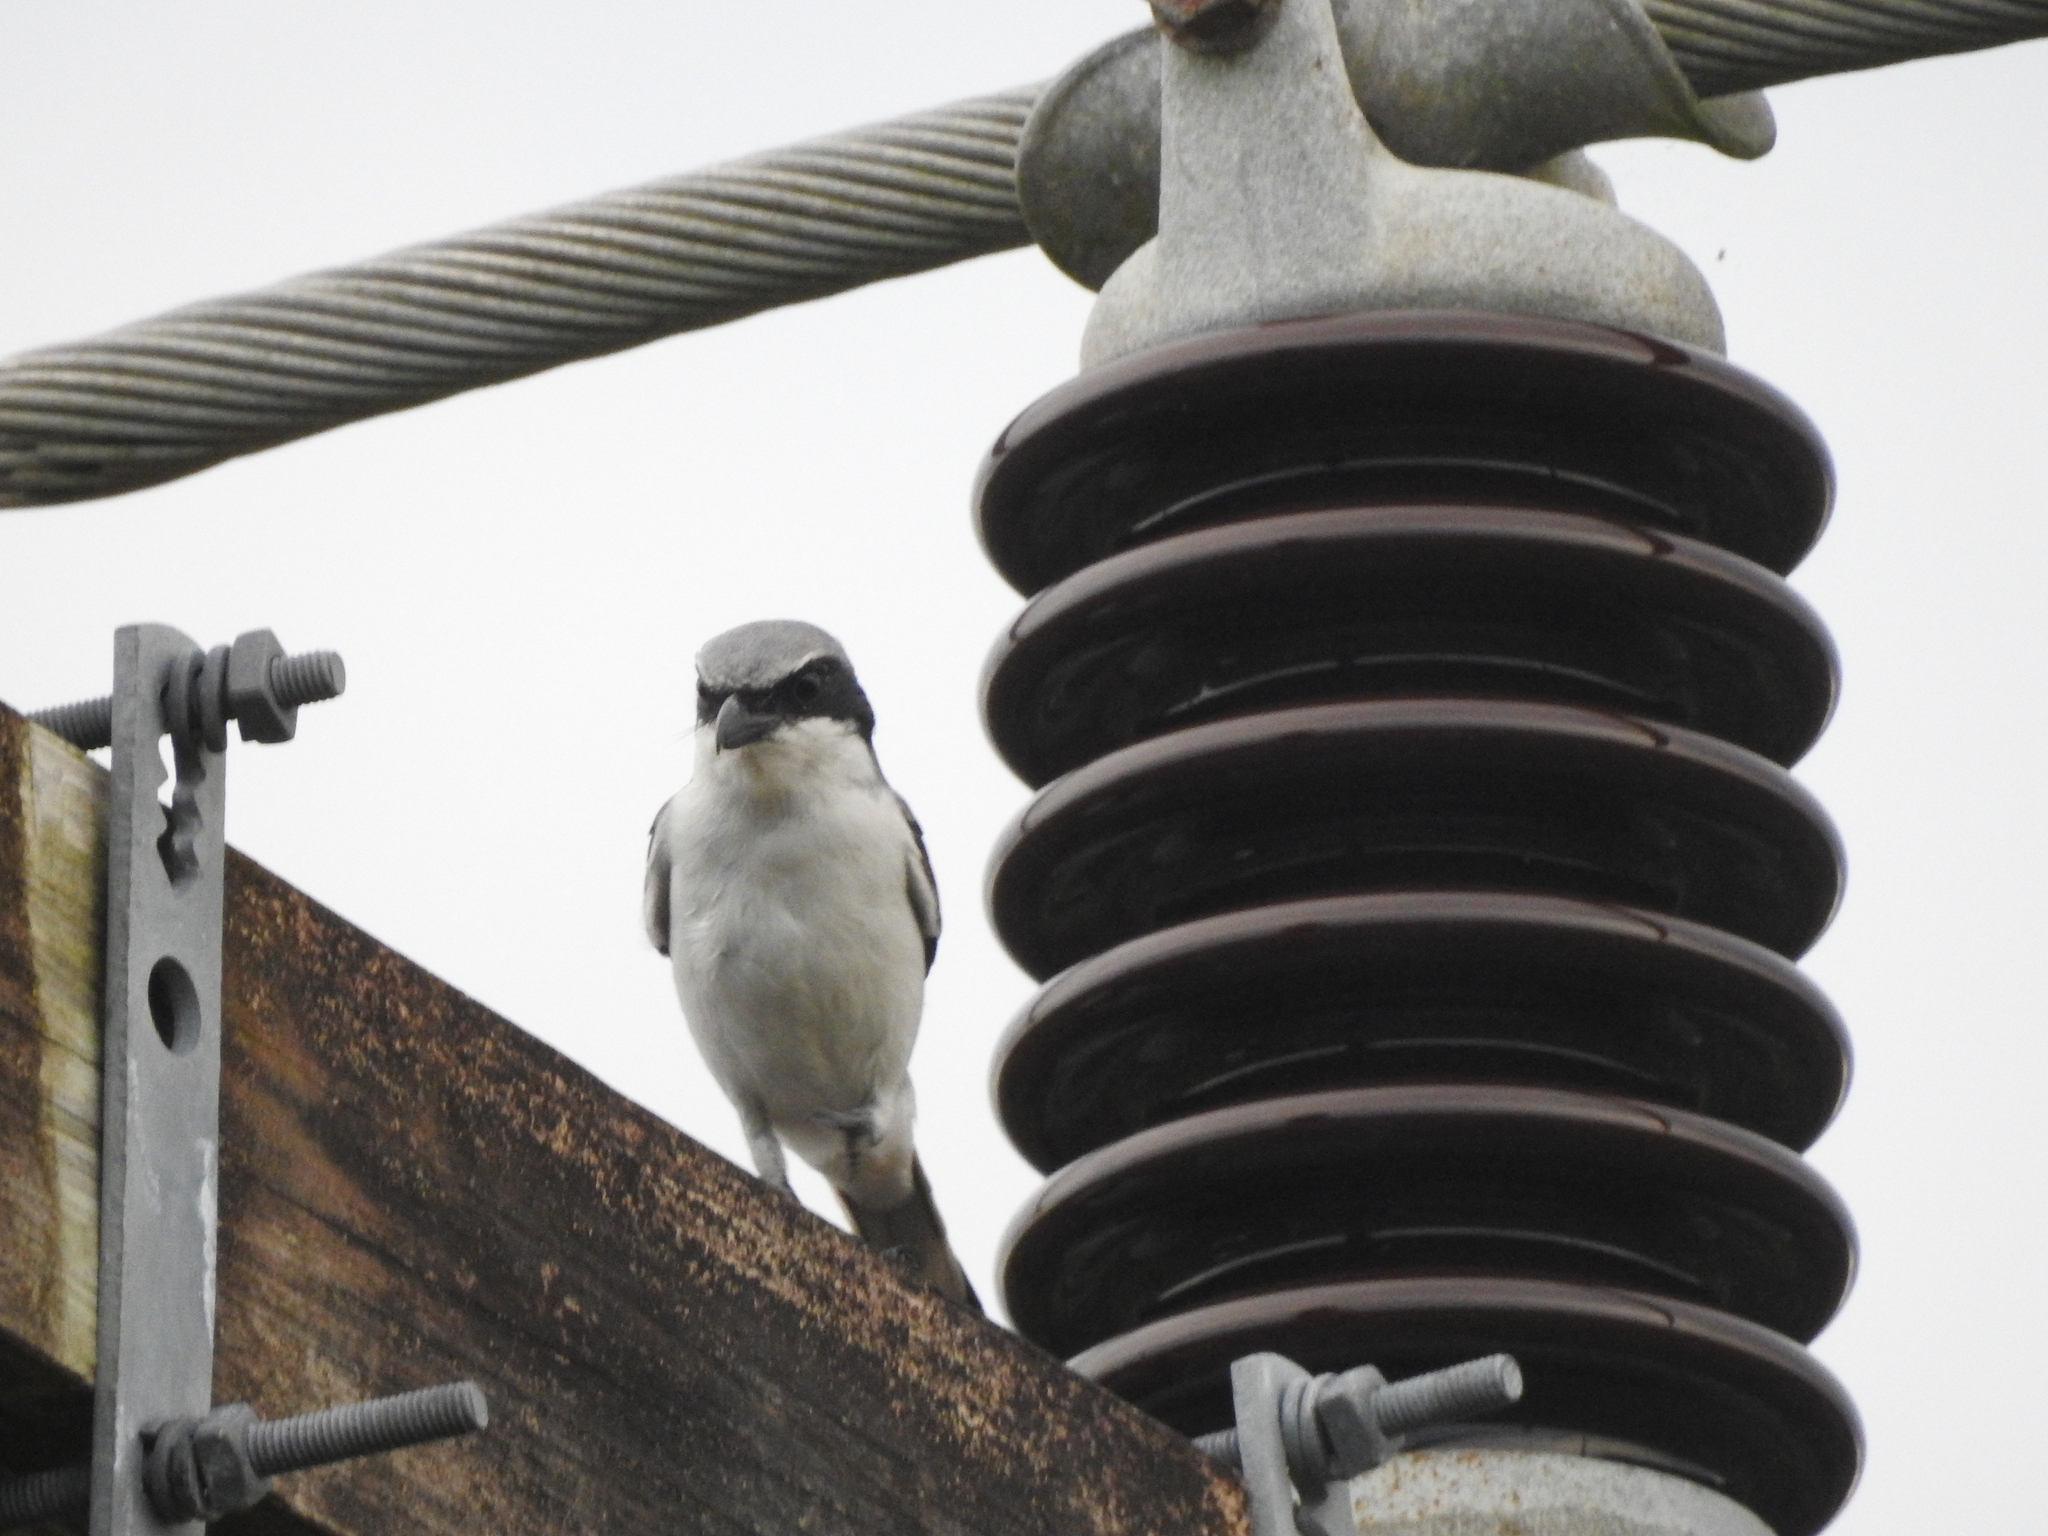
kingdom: Animalia
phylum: Chordata
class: Aves
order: Passeriformes
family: Laniidae
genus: Lanius
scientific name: Lanius ludovicianus
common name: Loggerhead shrike
